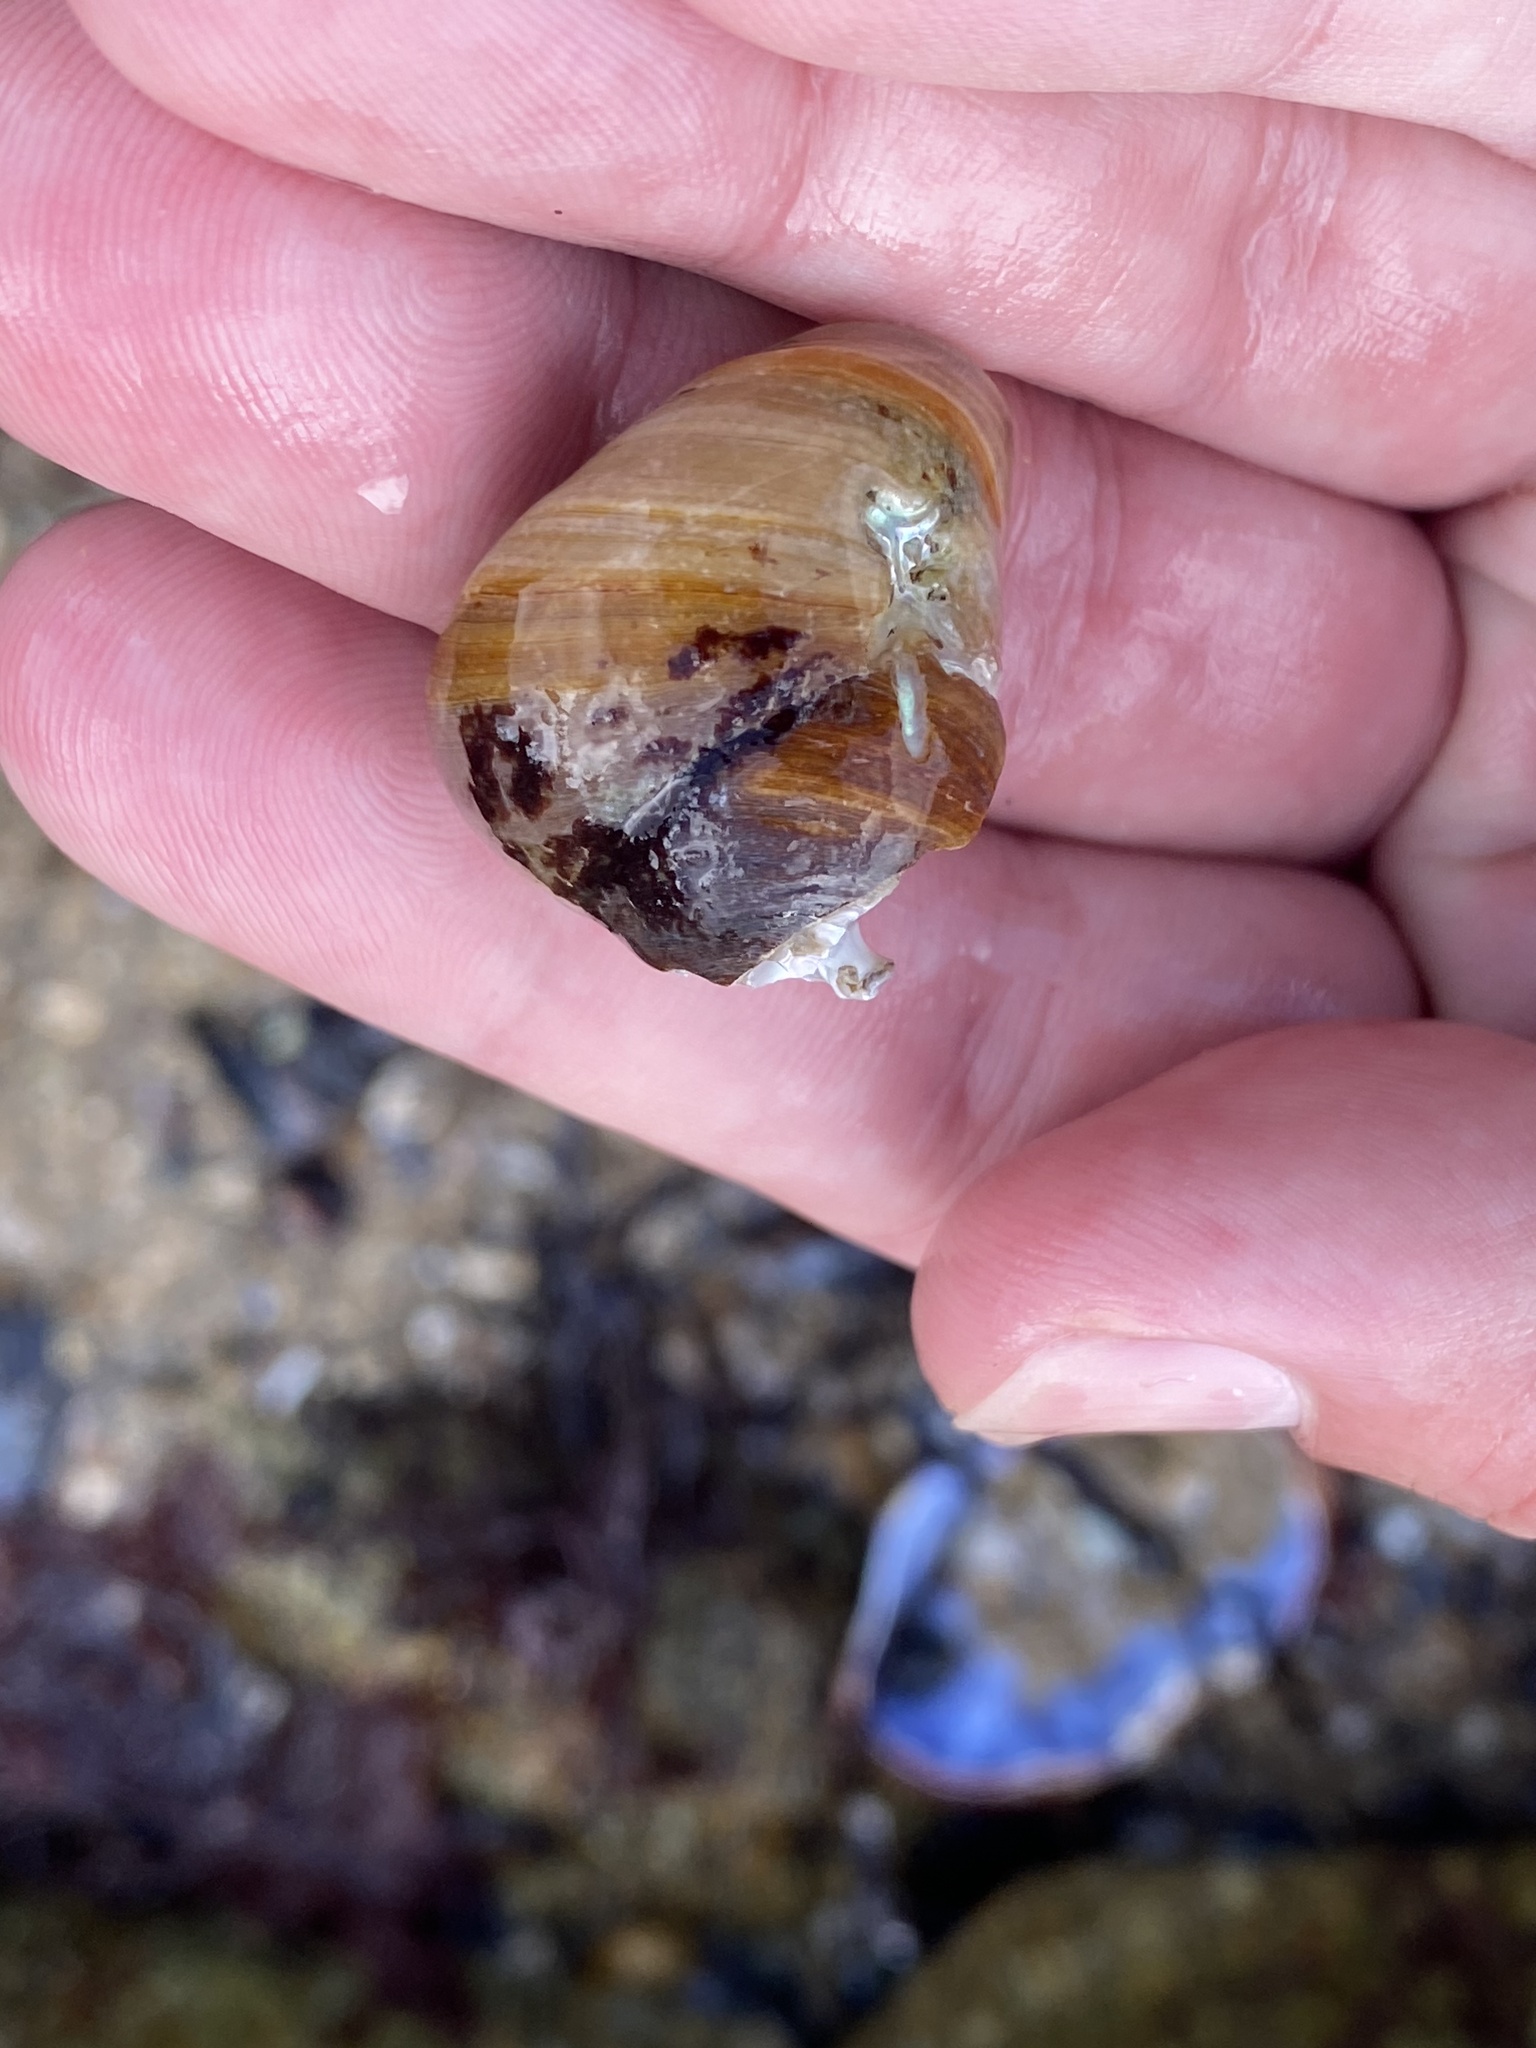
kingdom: Animalia
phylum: Mollusca
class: Gastropoda
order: Trochida
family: Tegulidae
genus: Tegula
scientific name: Tegula brunnea
